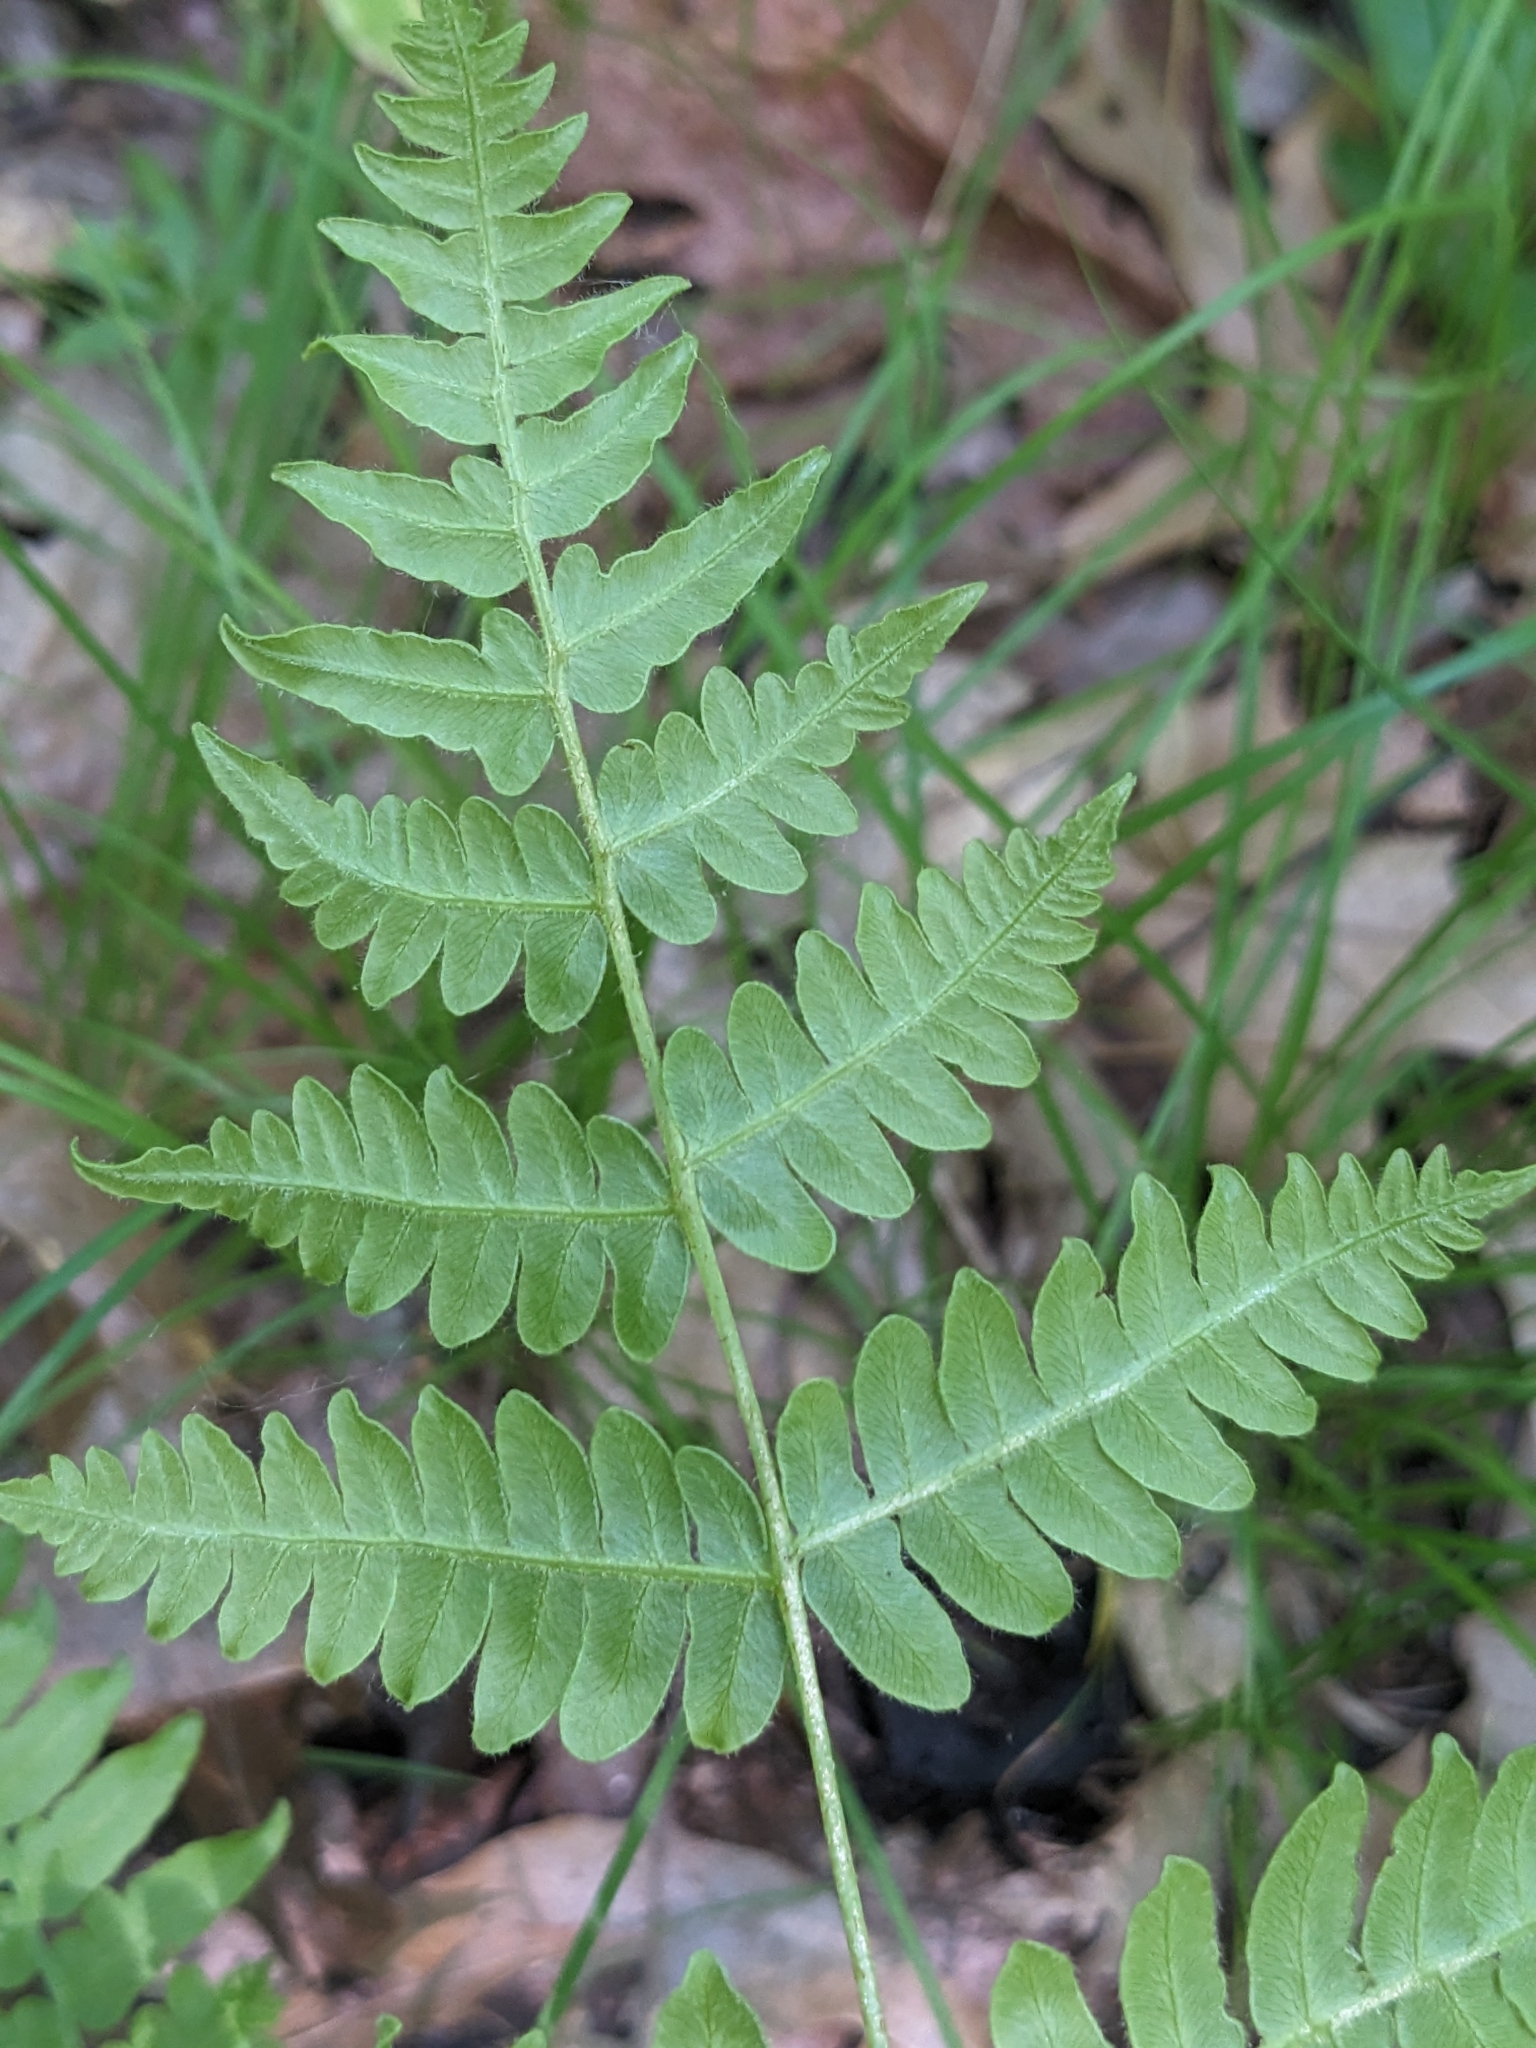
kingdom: Plantae
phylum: Tracheophyta
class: Polypodiopsida
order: Polypodiales
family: Dennstaedtiaceae
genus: Pteridium
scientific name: Pteridium aquilinum
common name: Bracken
